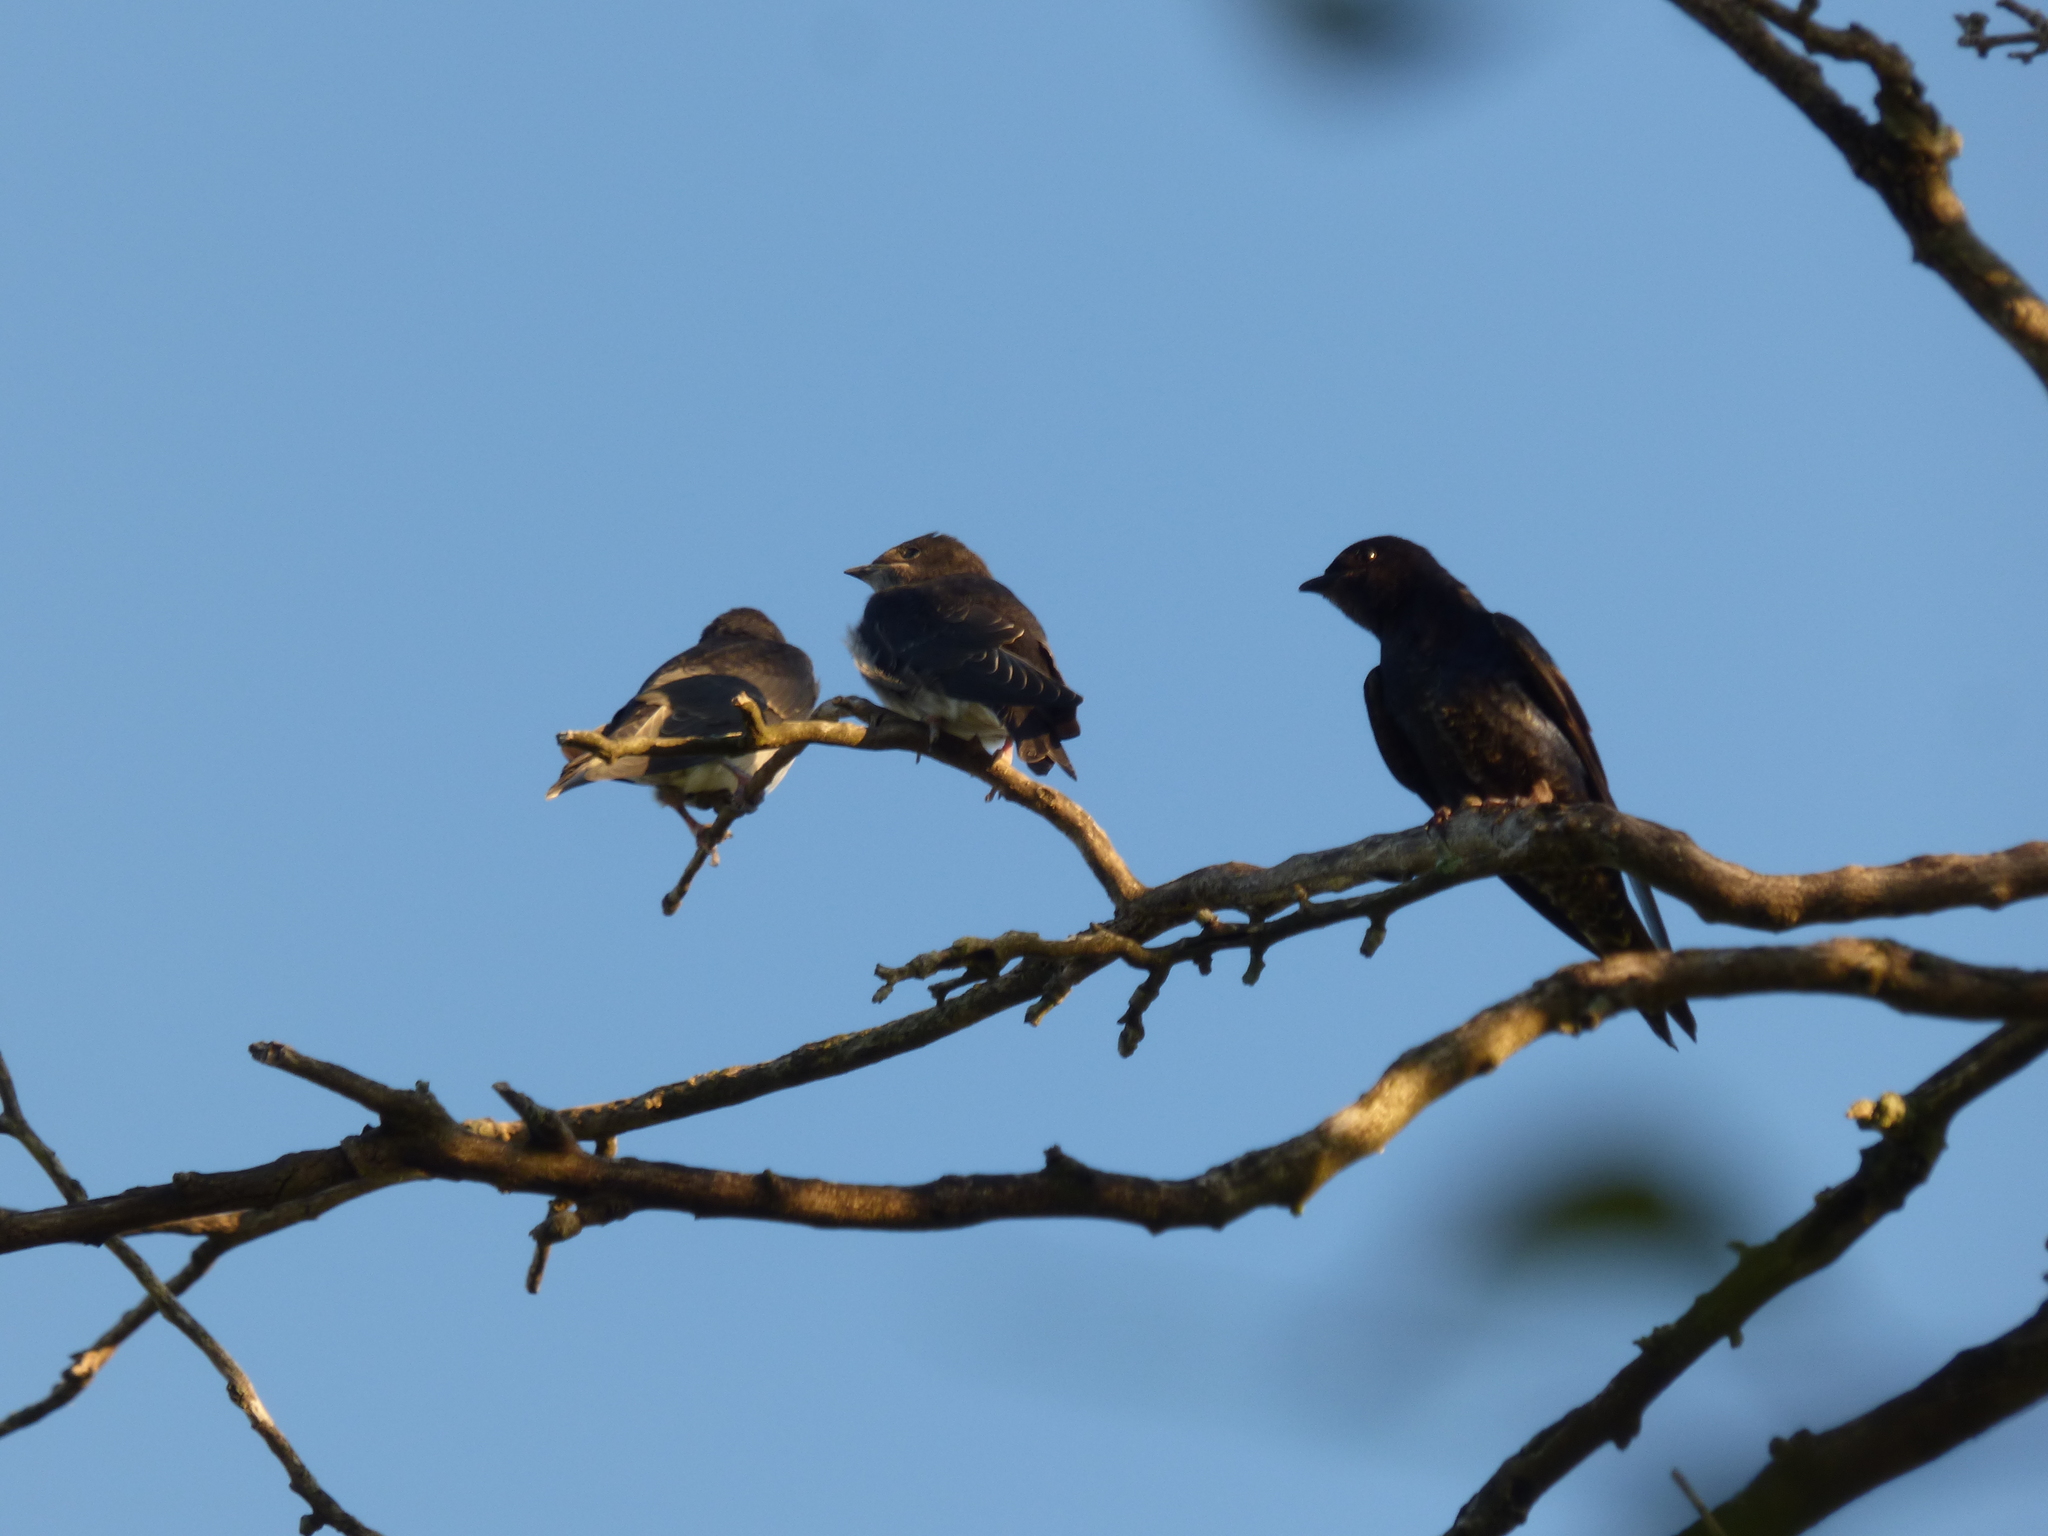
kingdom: Animalia
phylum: Chordata
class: Aves
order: Passeriformes
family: Hirundinidae
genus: Progne
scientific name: Progne elegans
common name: Southern martin
